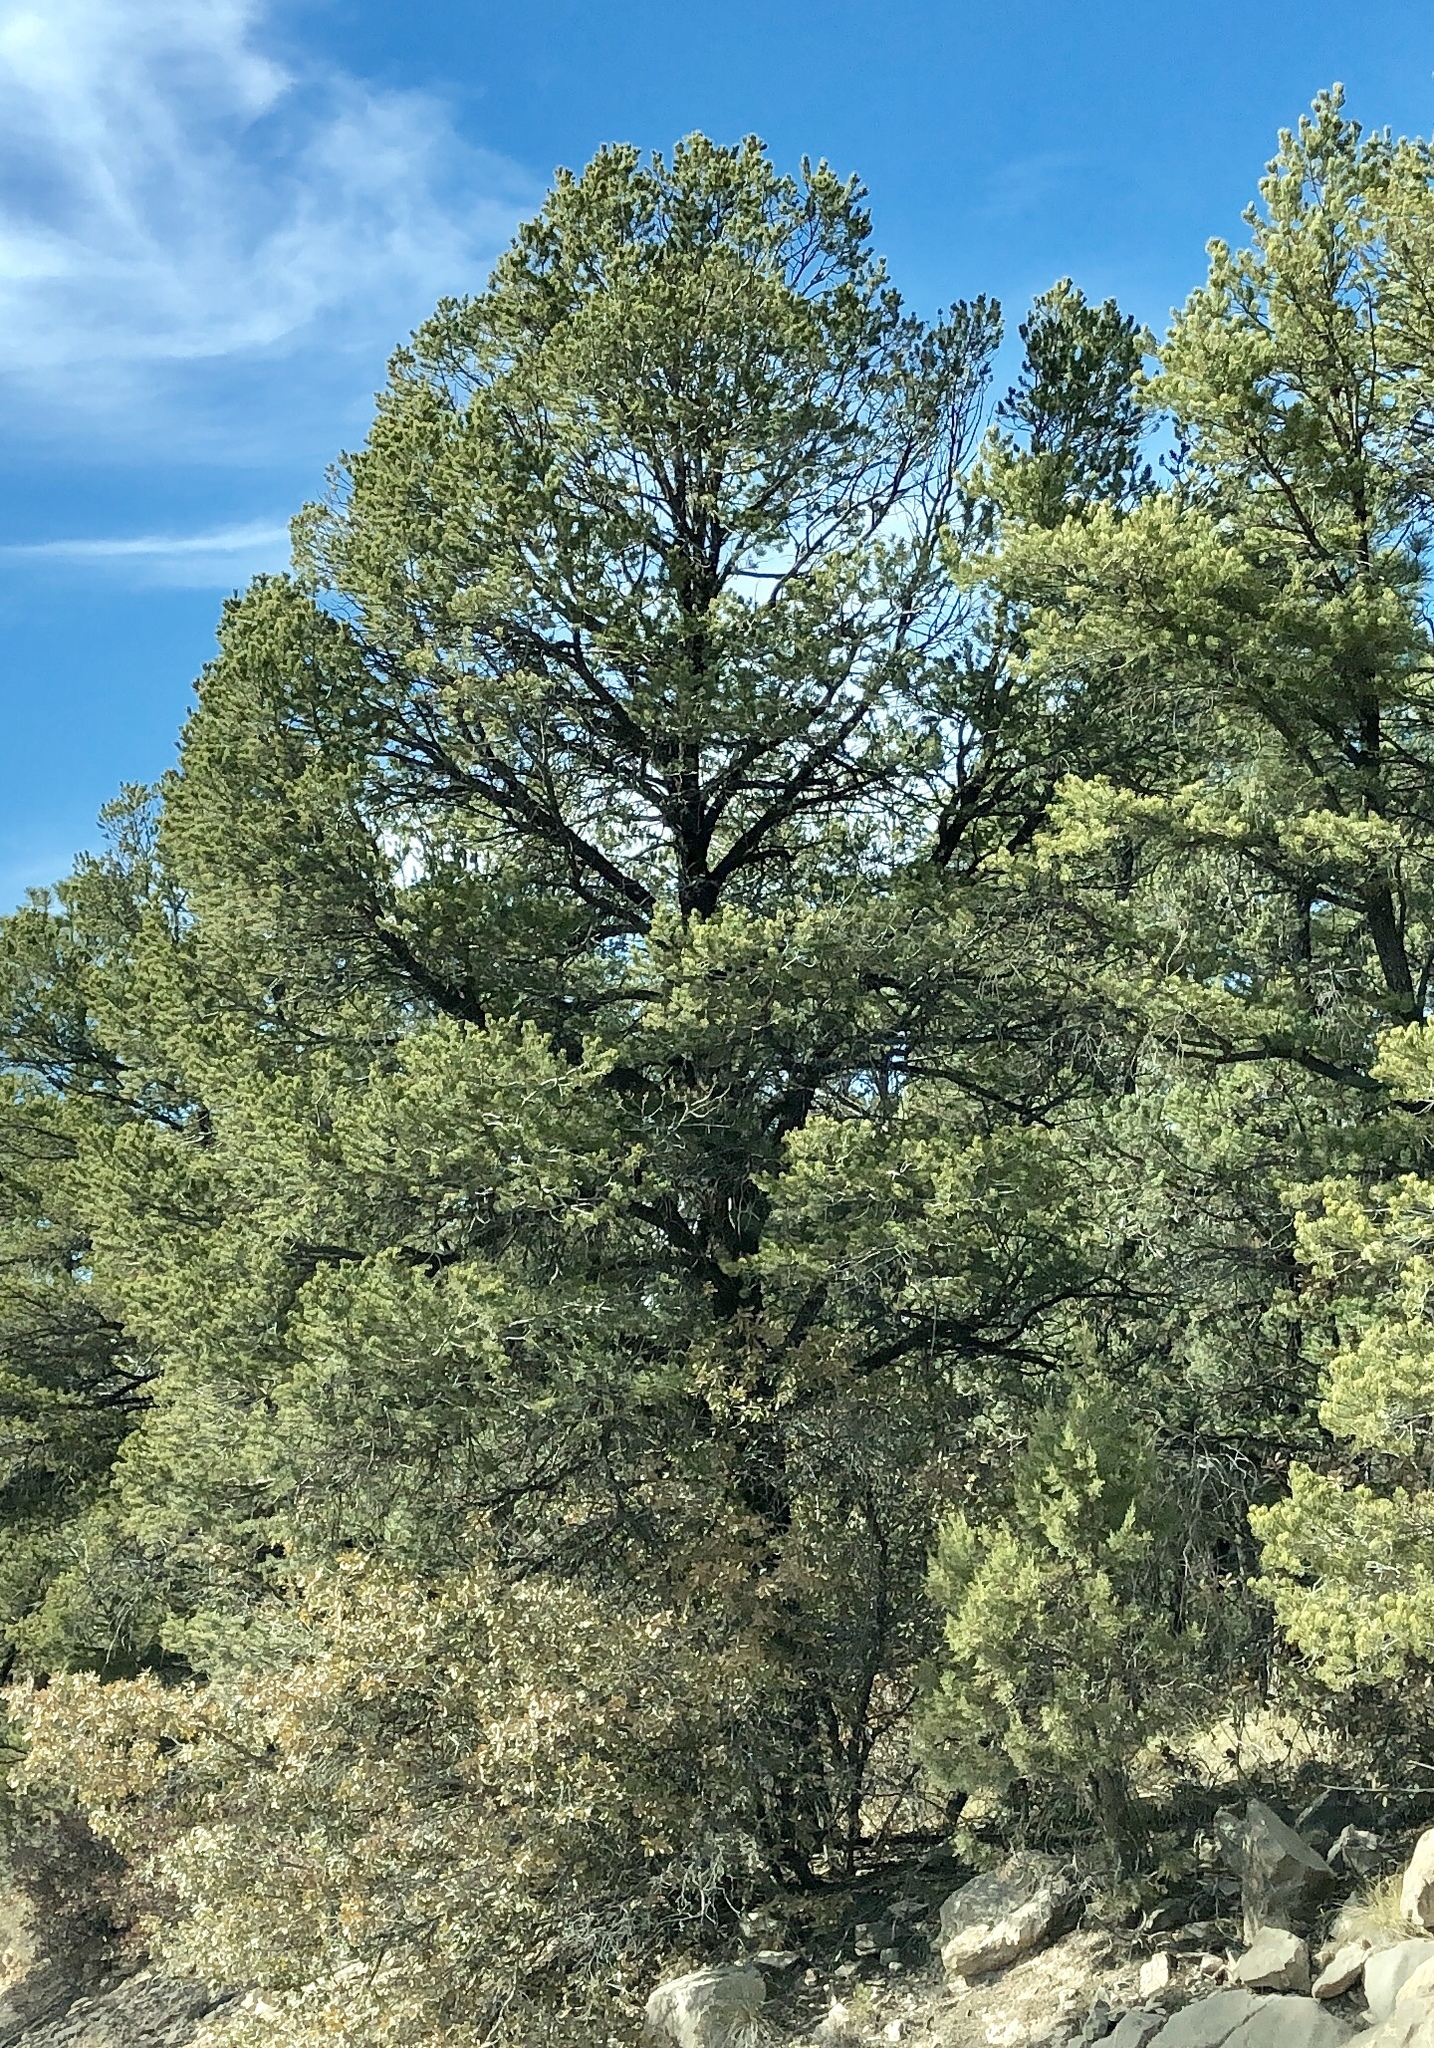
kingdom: Plantae
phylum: Tracheophyta
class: Pinopsida
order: Pinales
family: Pinaceae
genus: Pinus
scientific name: Pinus edulis
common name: Colorado pinyon
